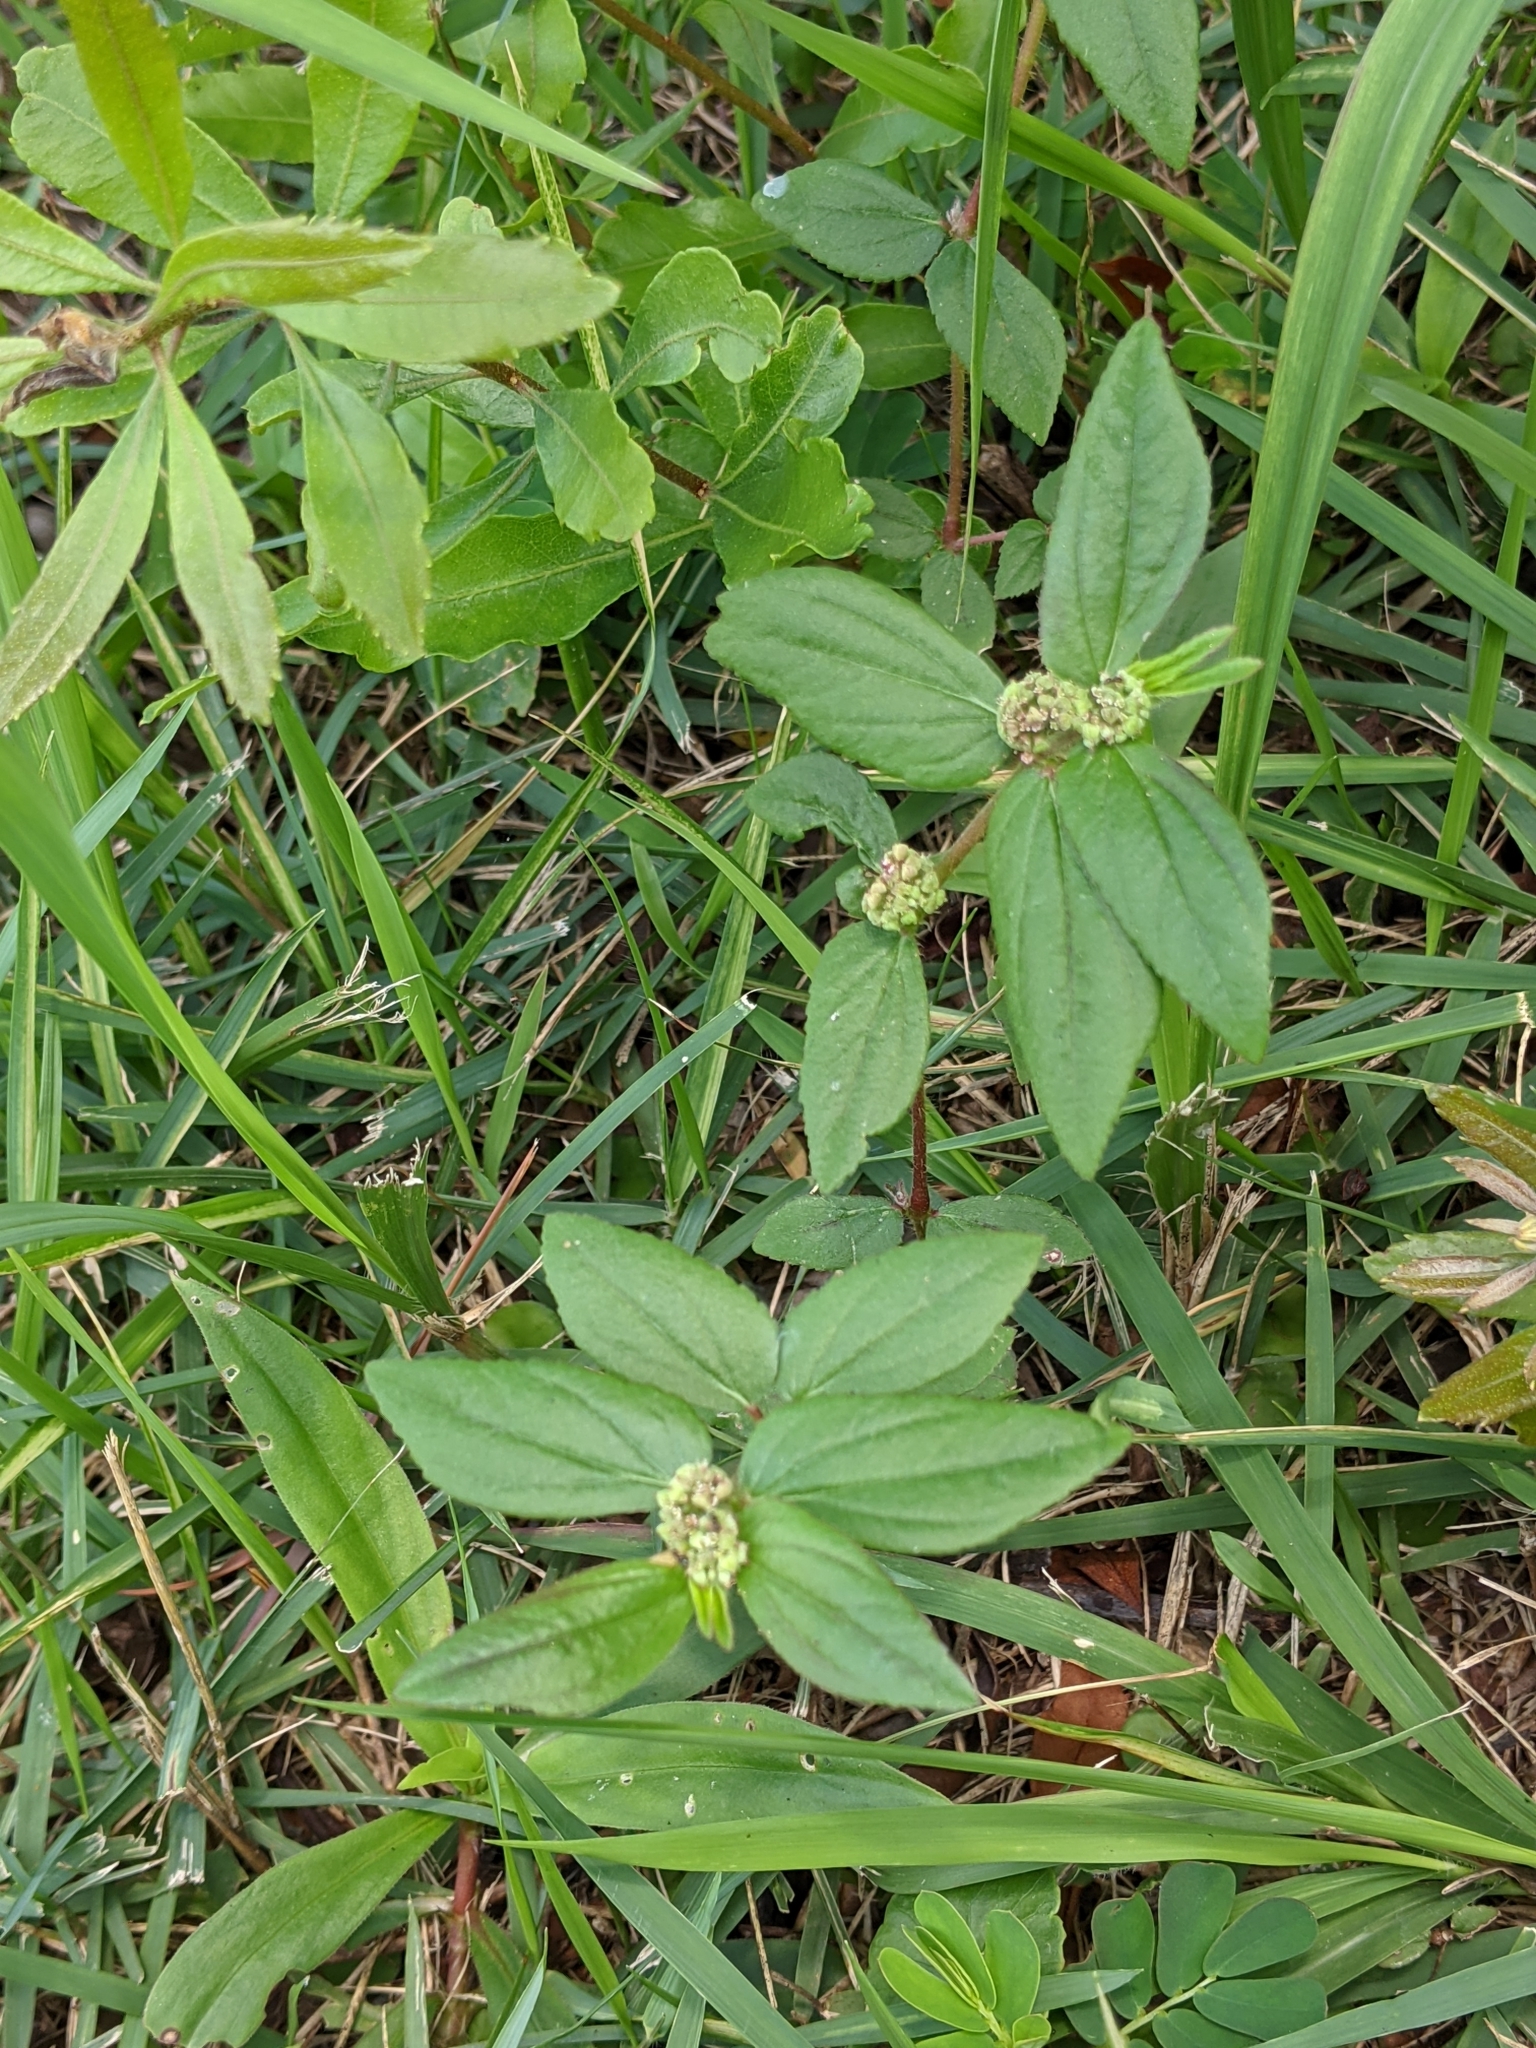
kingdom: Plantae
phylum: Tracheophyta
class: Magnoliopsida
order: Malpighiales
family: Euphorbiaceae
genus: Euphorbia
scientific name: Euphorbia hirta
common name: Pillpod sandmat
